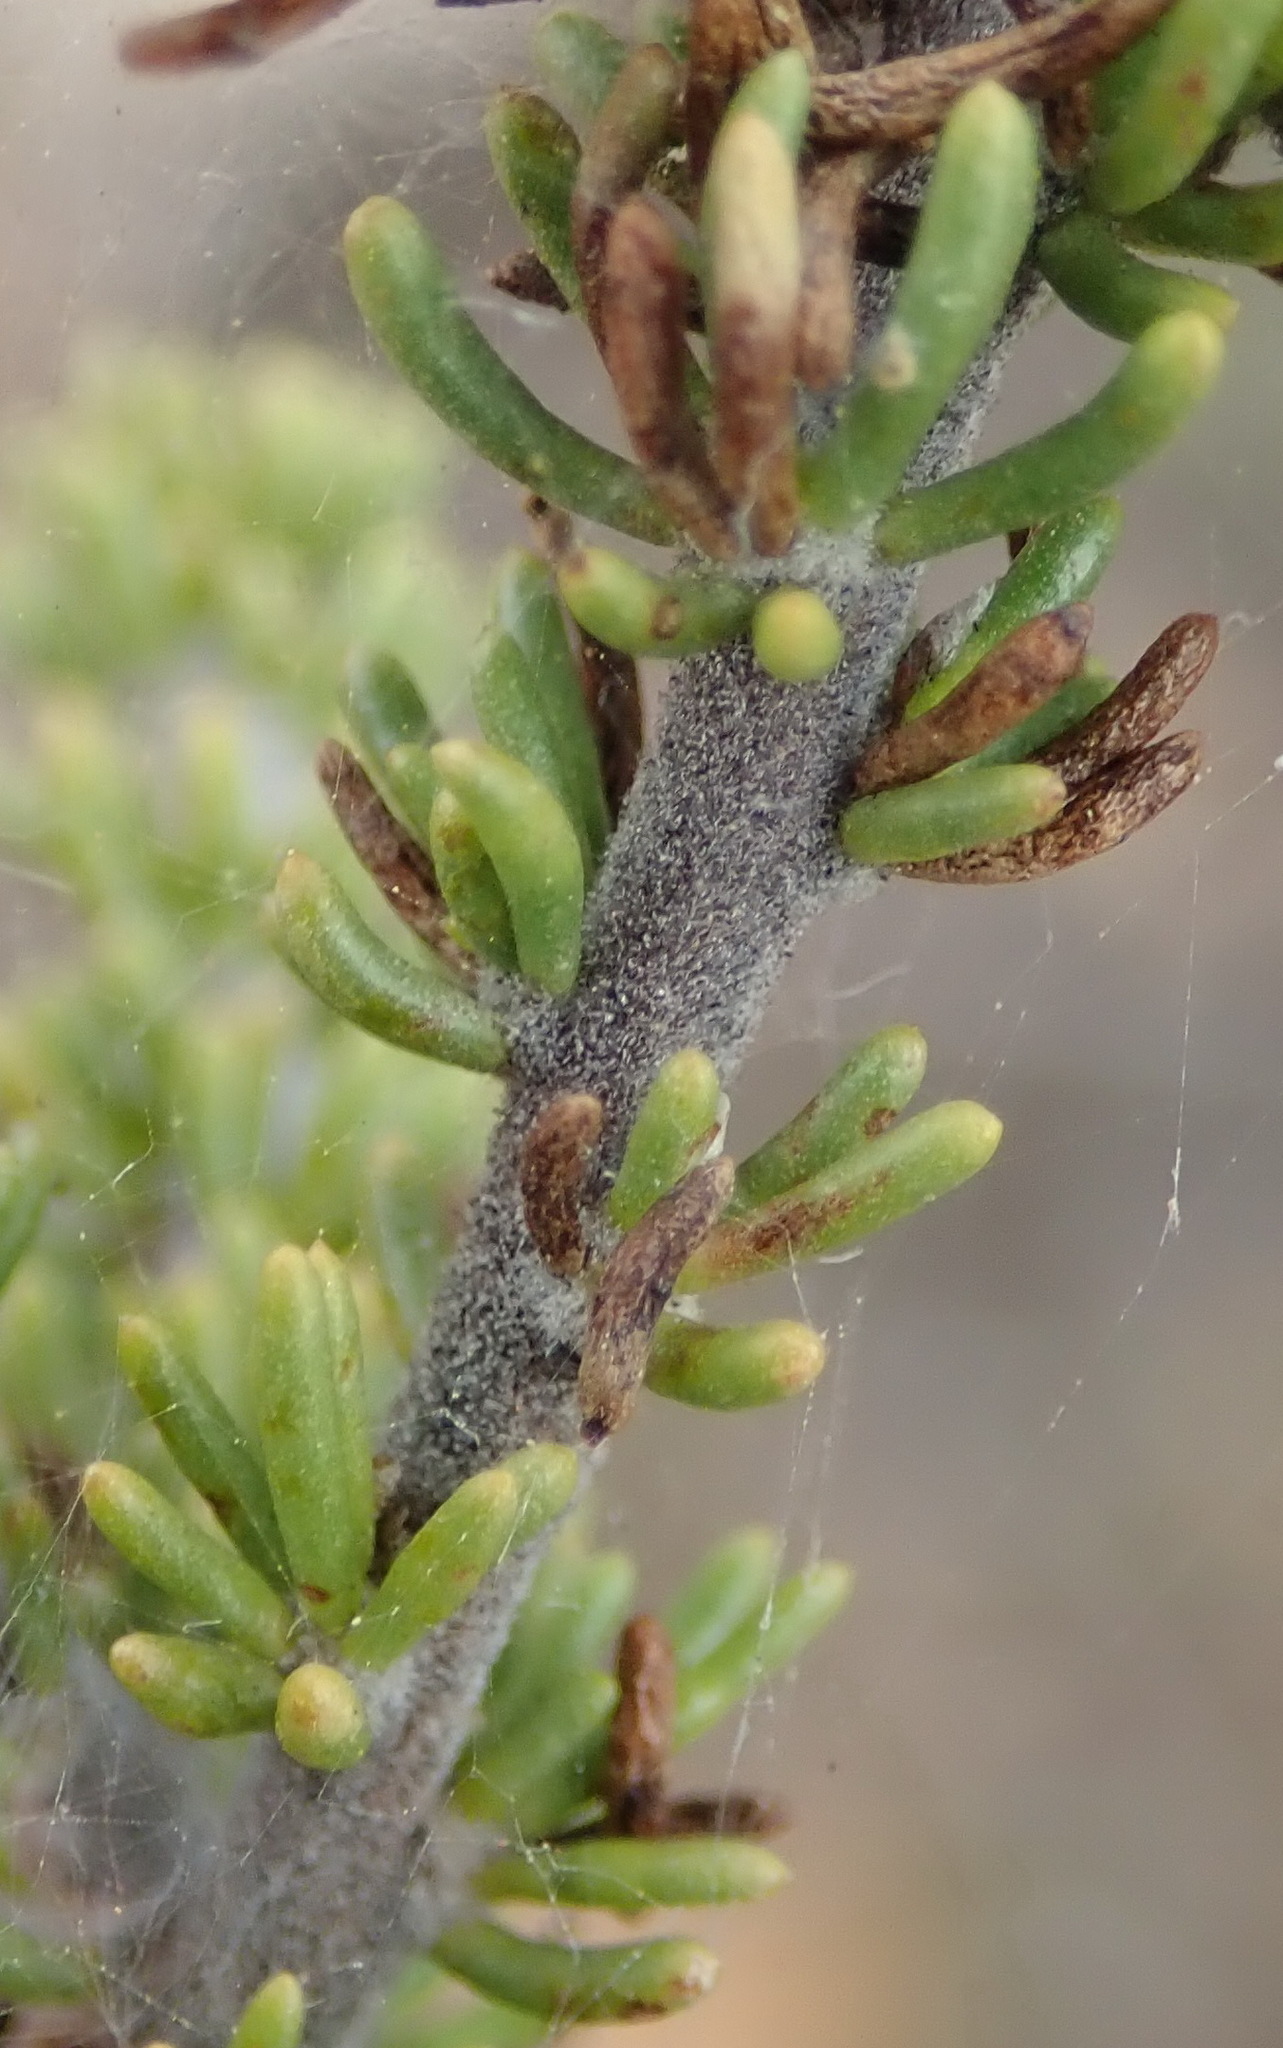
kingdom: Plantae
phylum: Tracheophyta
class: Magnoliopsida
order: Fabales
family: Fabaceae
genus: Aspalathus
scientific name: Aspalathus laricifolia
